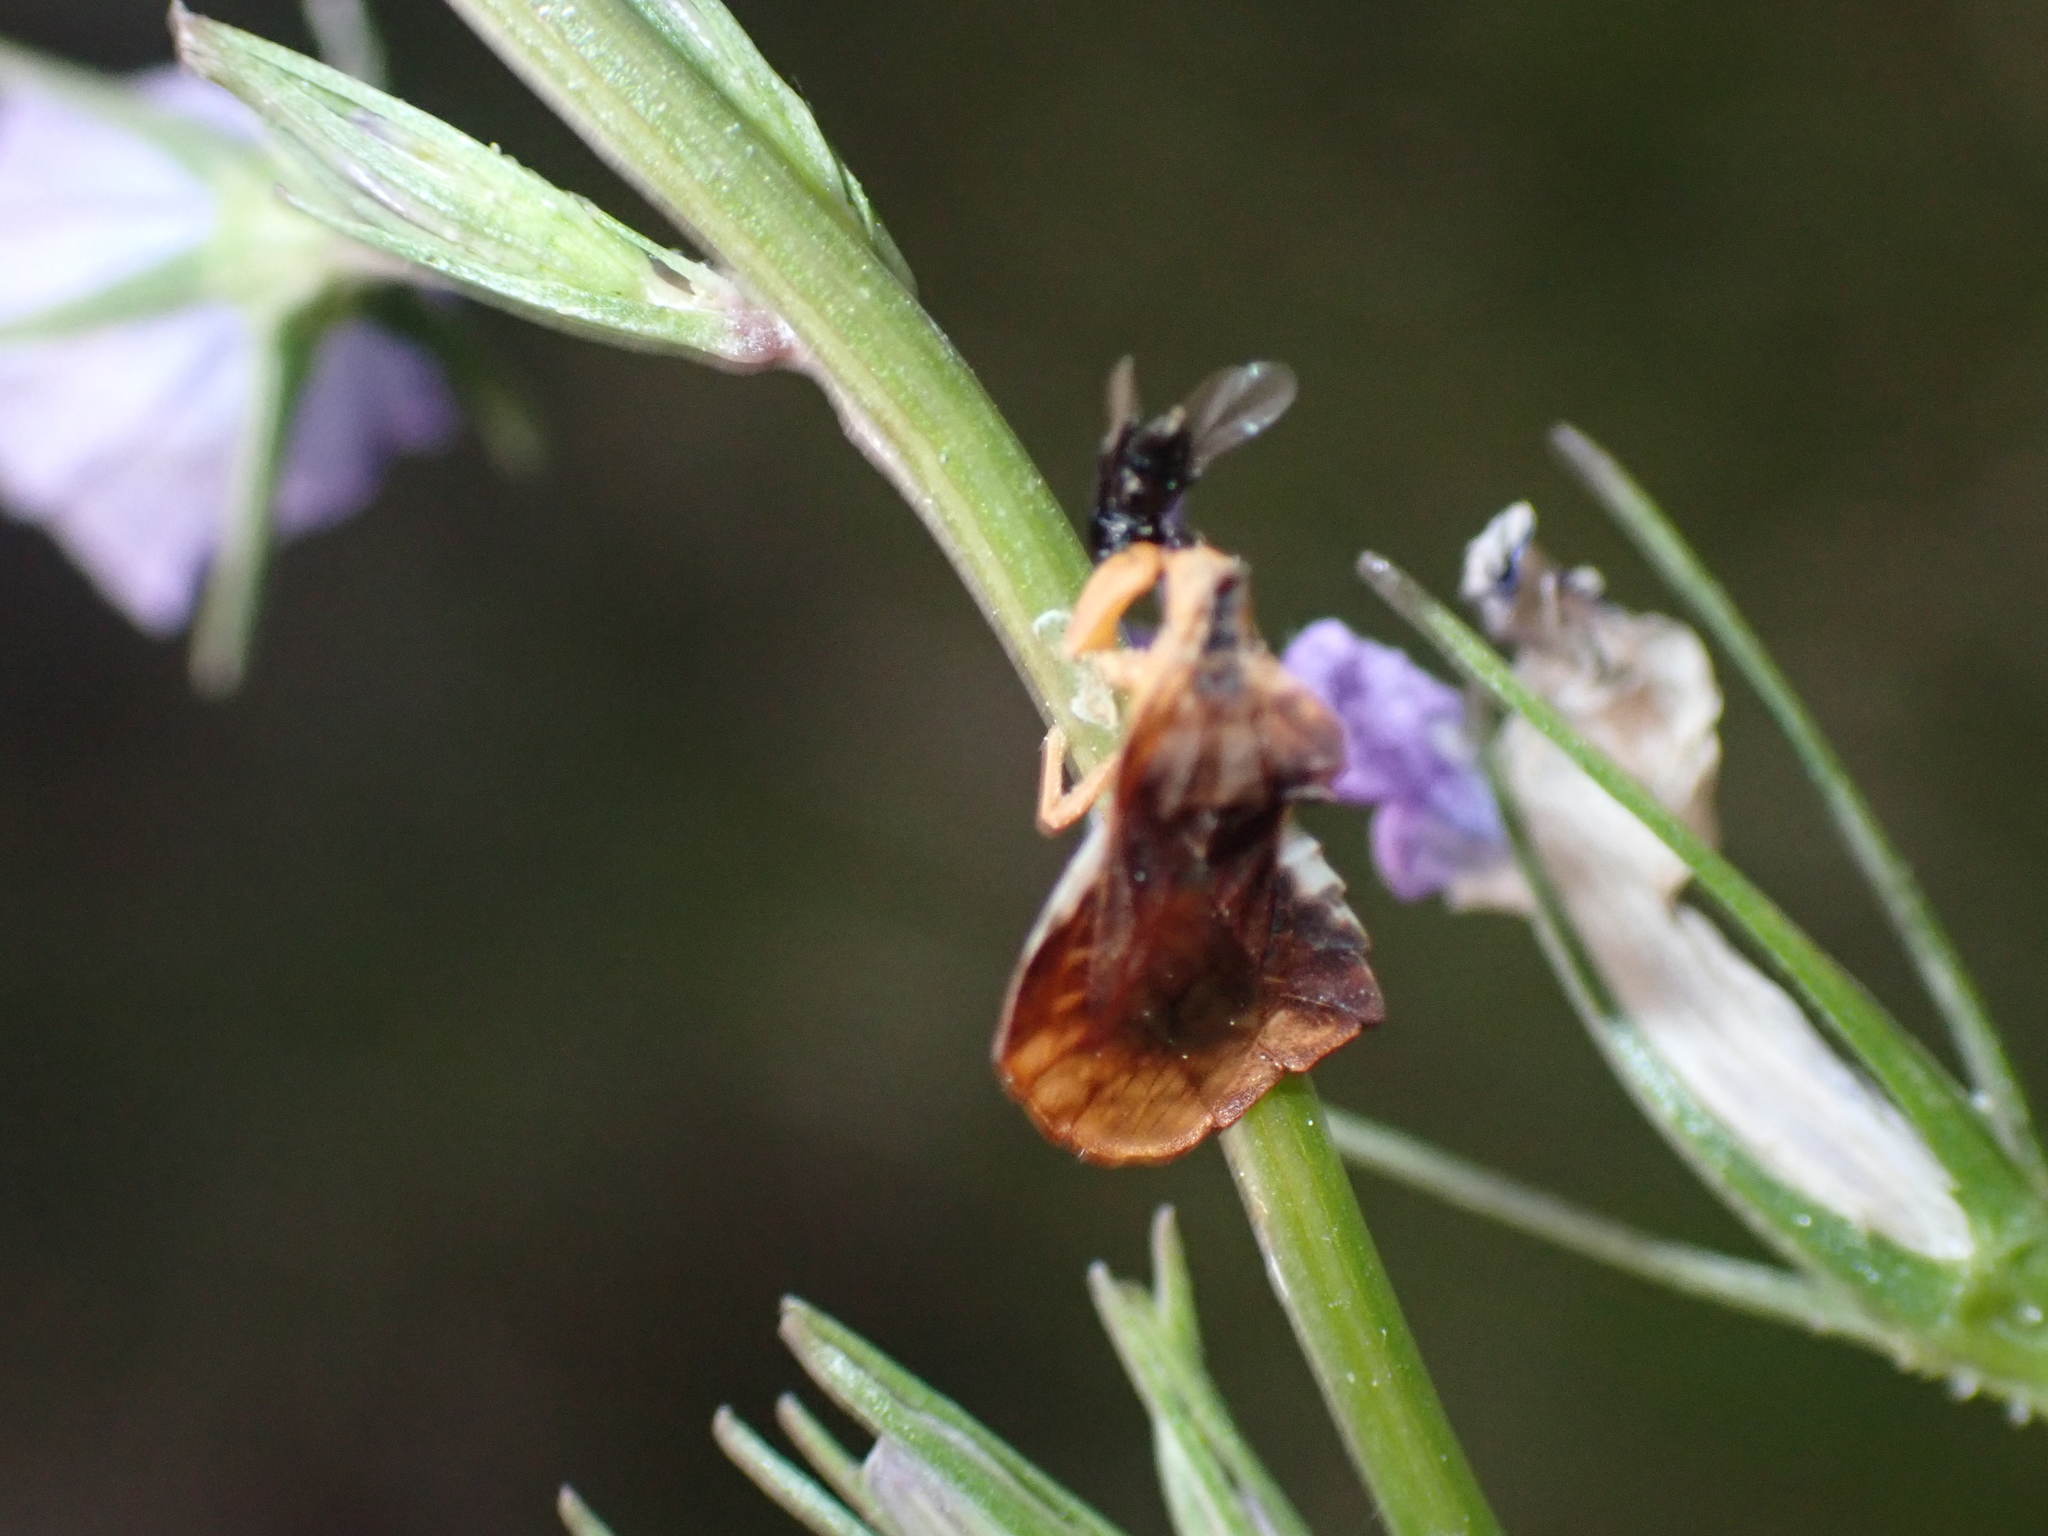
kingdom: Animalia
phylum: Arthropoda
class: Insecta
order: Hemiptera
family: Reduviidae
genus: Phymata
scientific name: Phymata crassipes
